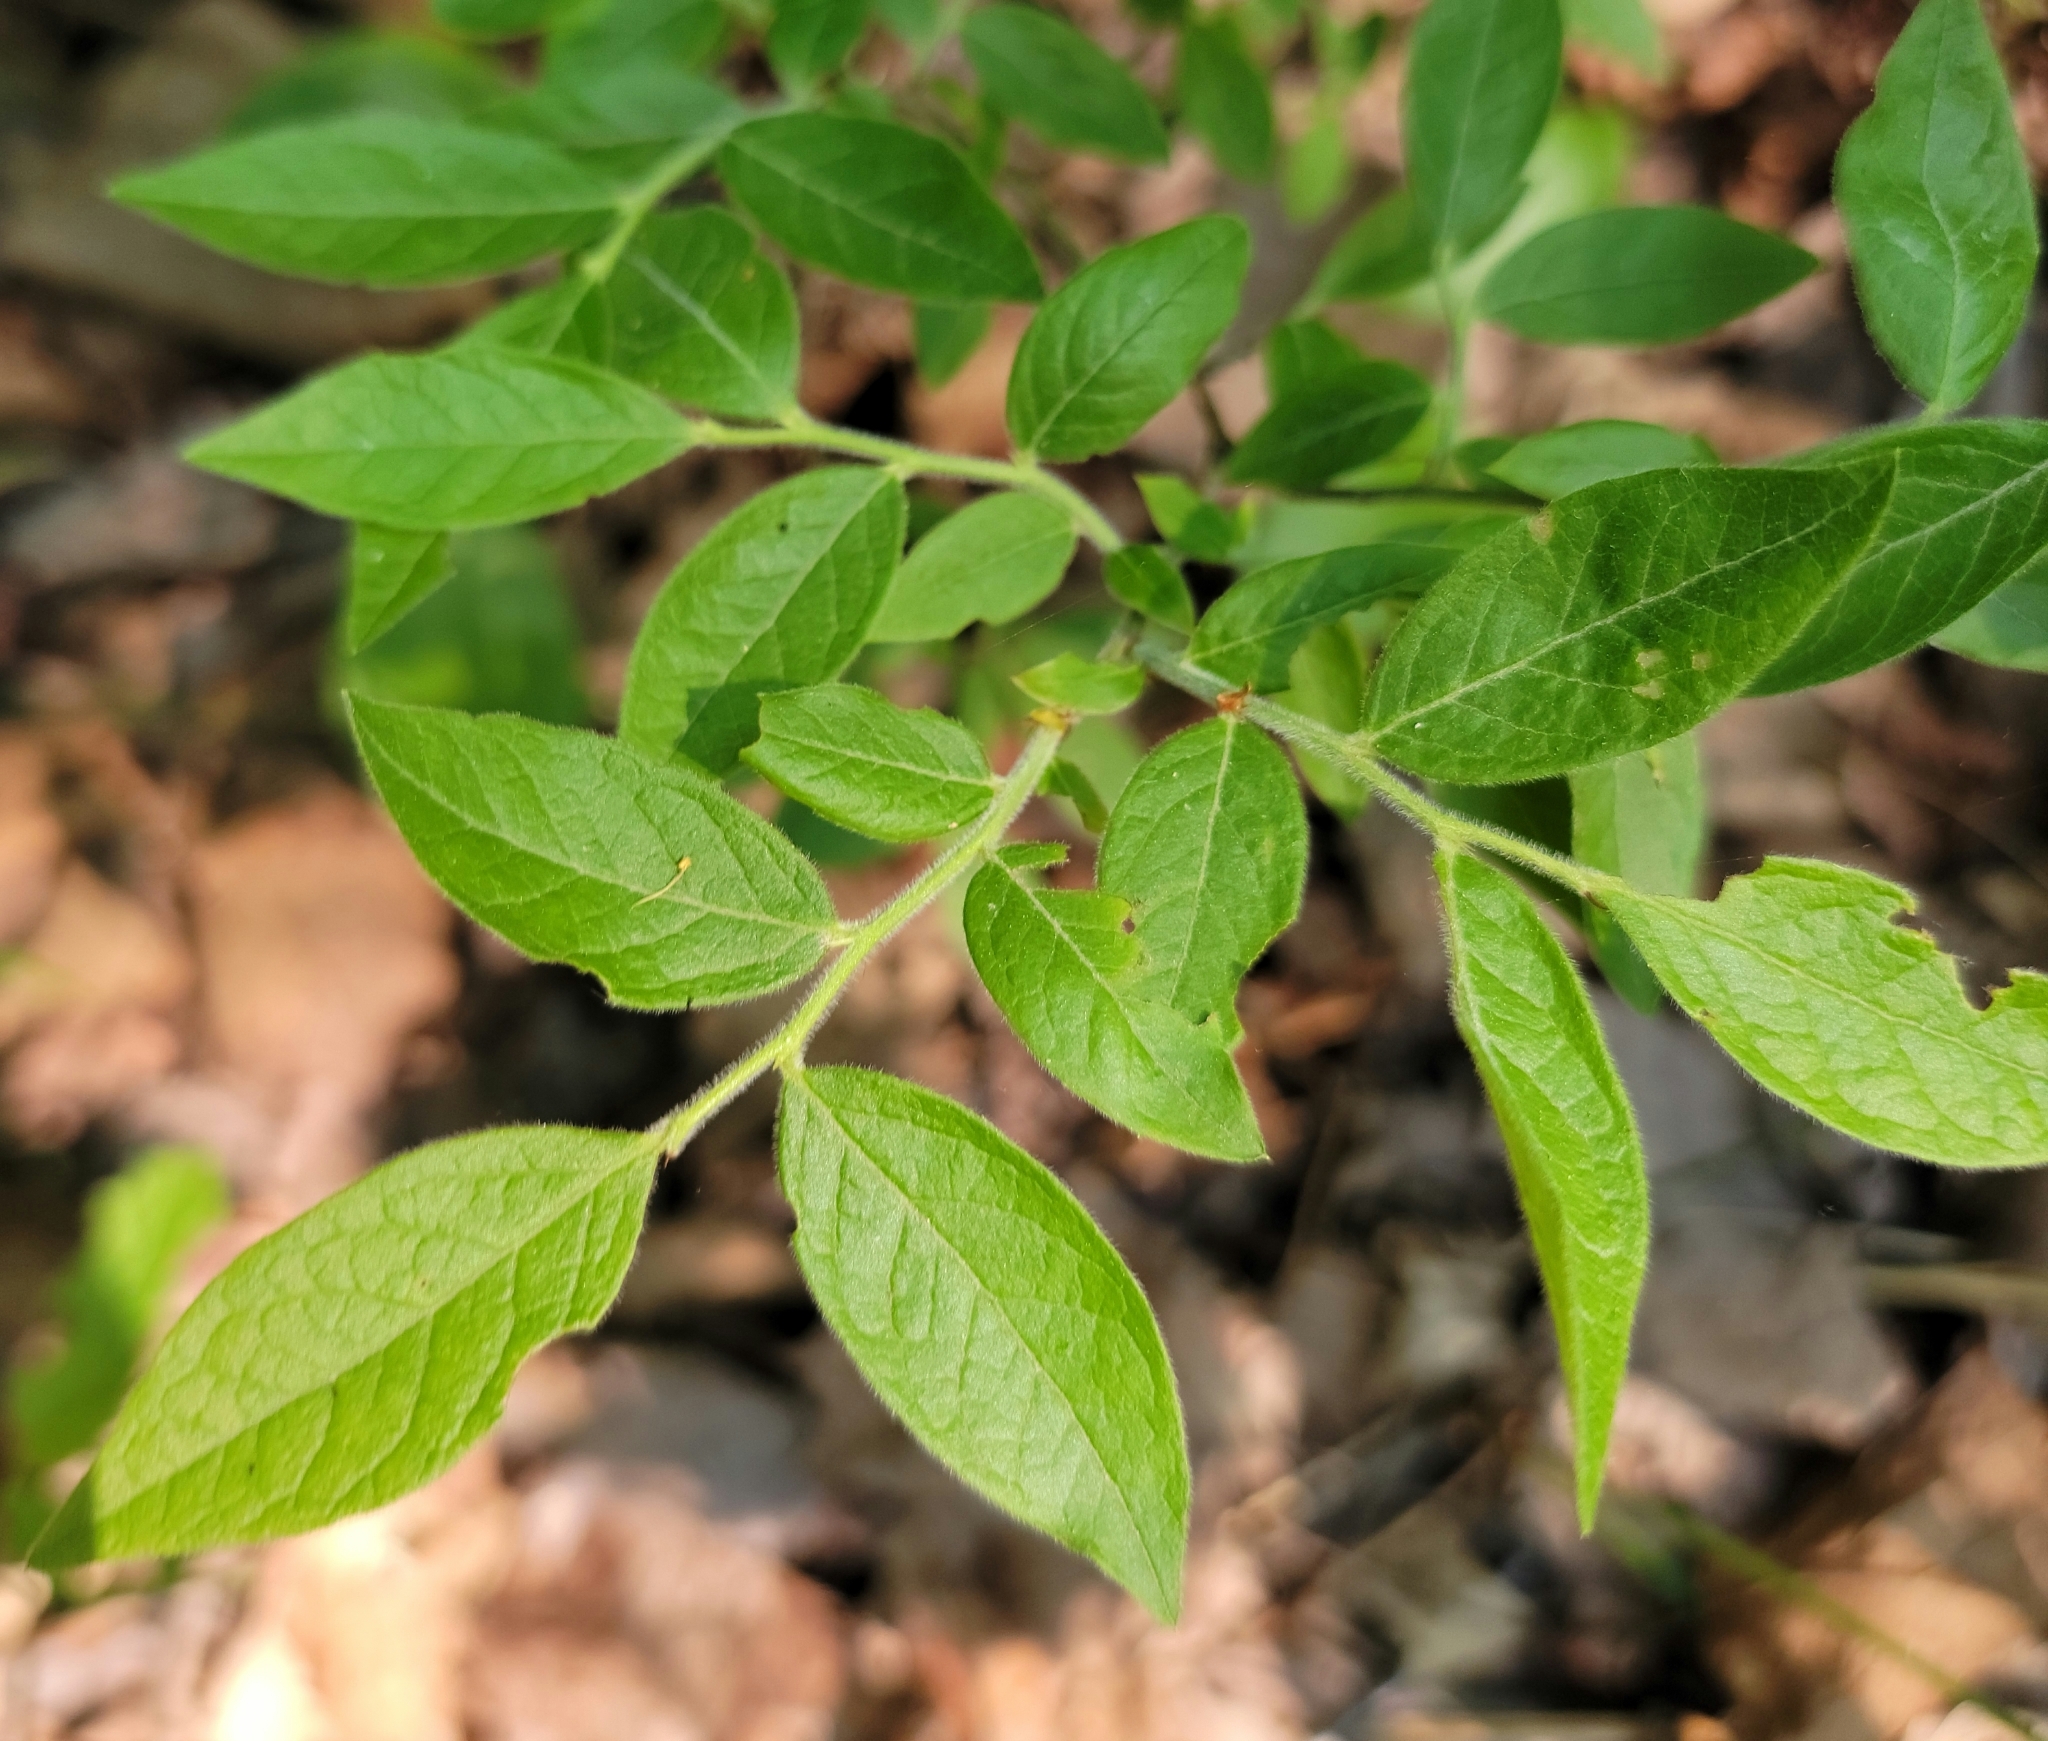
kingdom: Plantae
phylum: Tracheophyta
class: Magnoliopsida
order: Ericales
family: Ericaceae
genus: Vaccinium
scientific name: Vaccinium myrtilloides
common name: Canada blueberry
